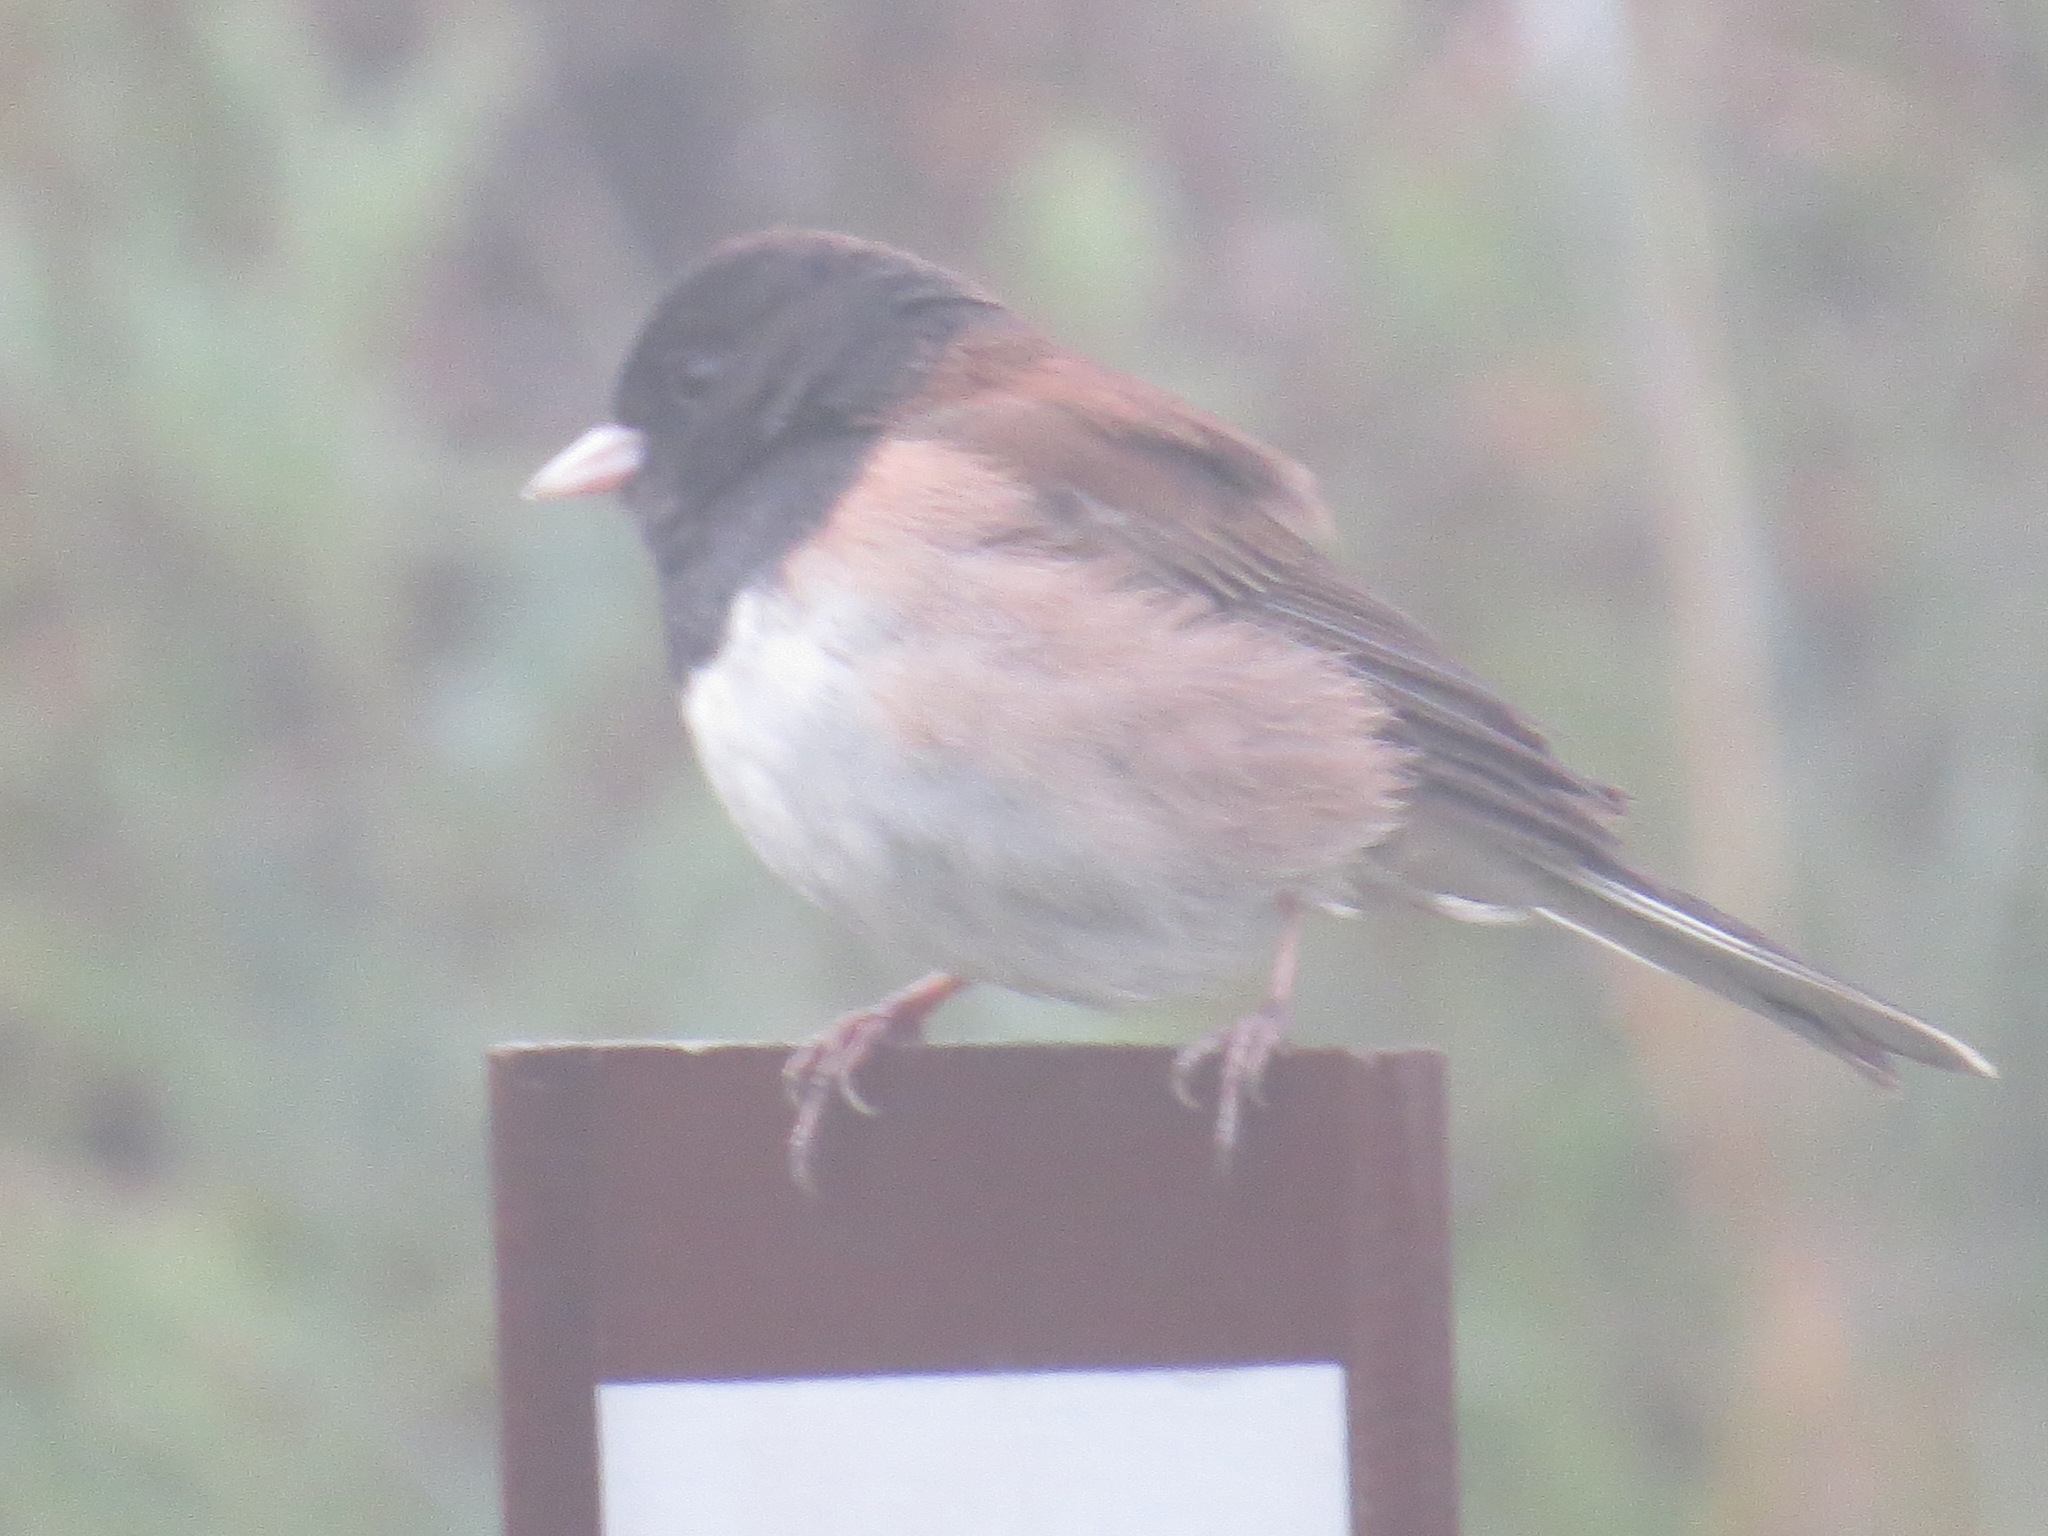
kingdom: Animalia
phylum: Chordata
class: Aves
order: Passeriformes
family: Passerellidae
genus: Junco
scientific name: Junco hyemalis
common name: Dark-eyed junco
